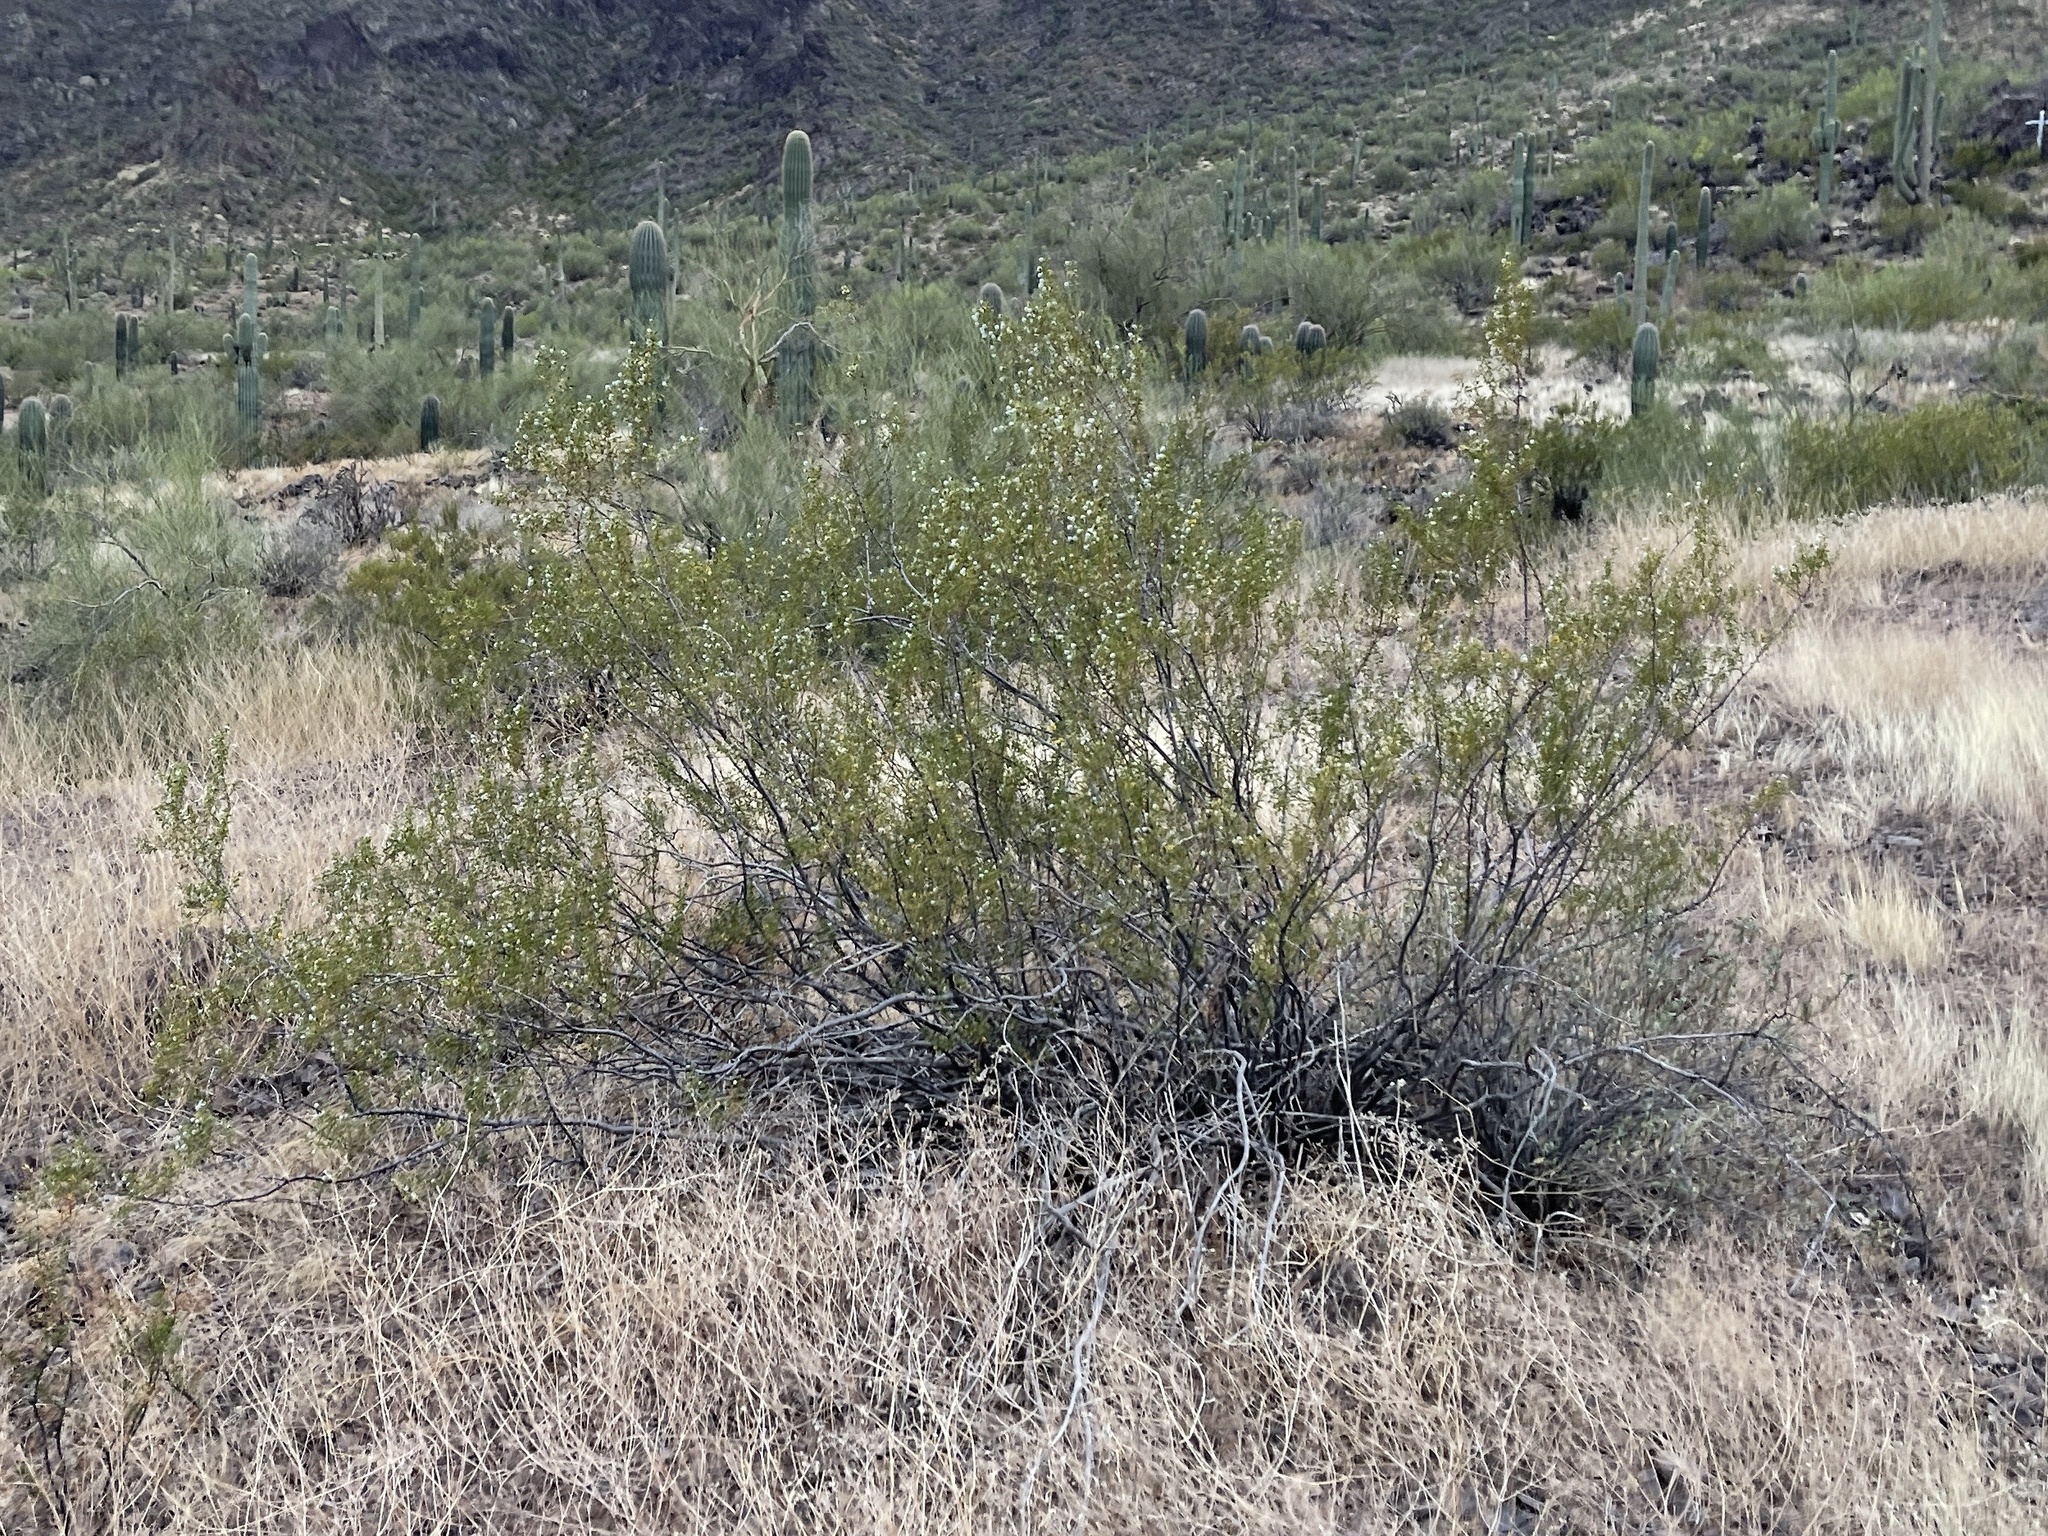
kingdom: Plantae
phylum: Tracheophyta
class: Magnoliopsida
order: Zygophyllales
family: Zygophyllaceae
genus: Larrea
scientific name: Larrea tridentata
